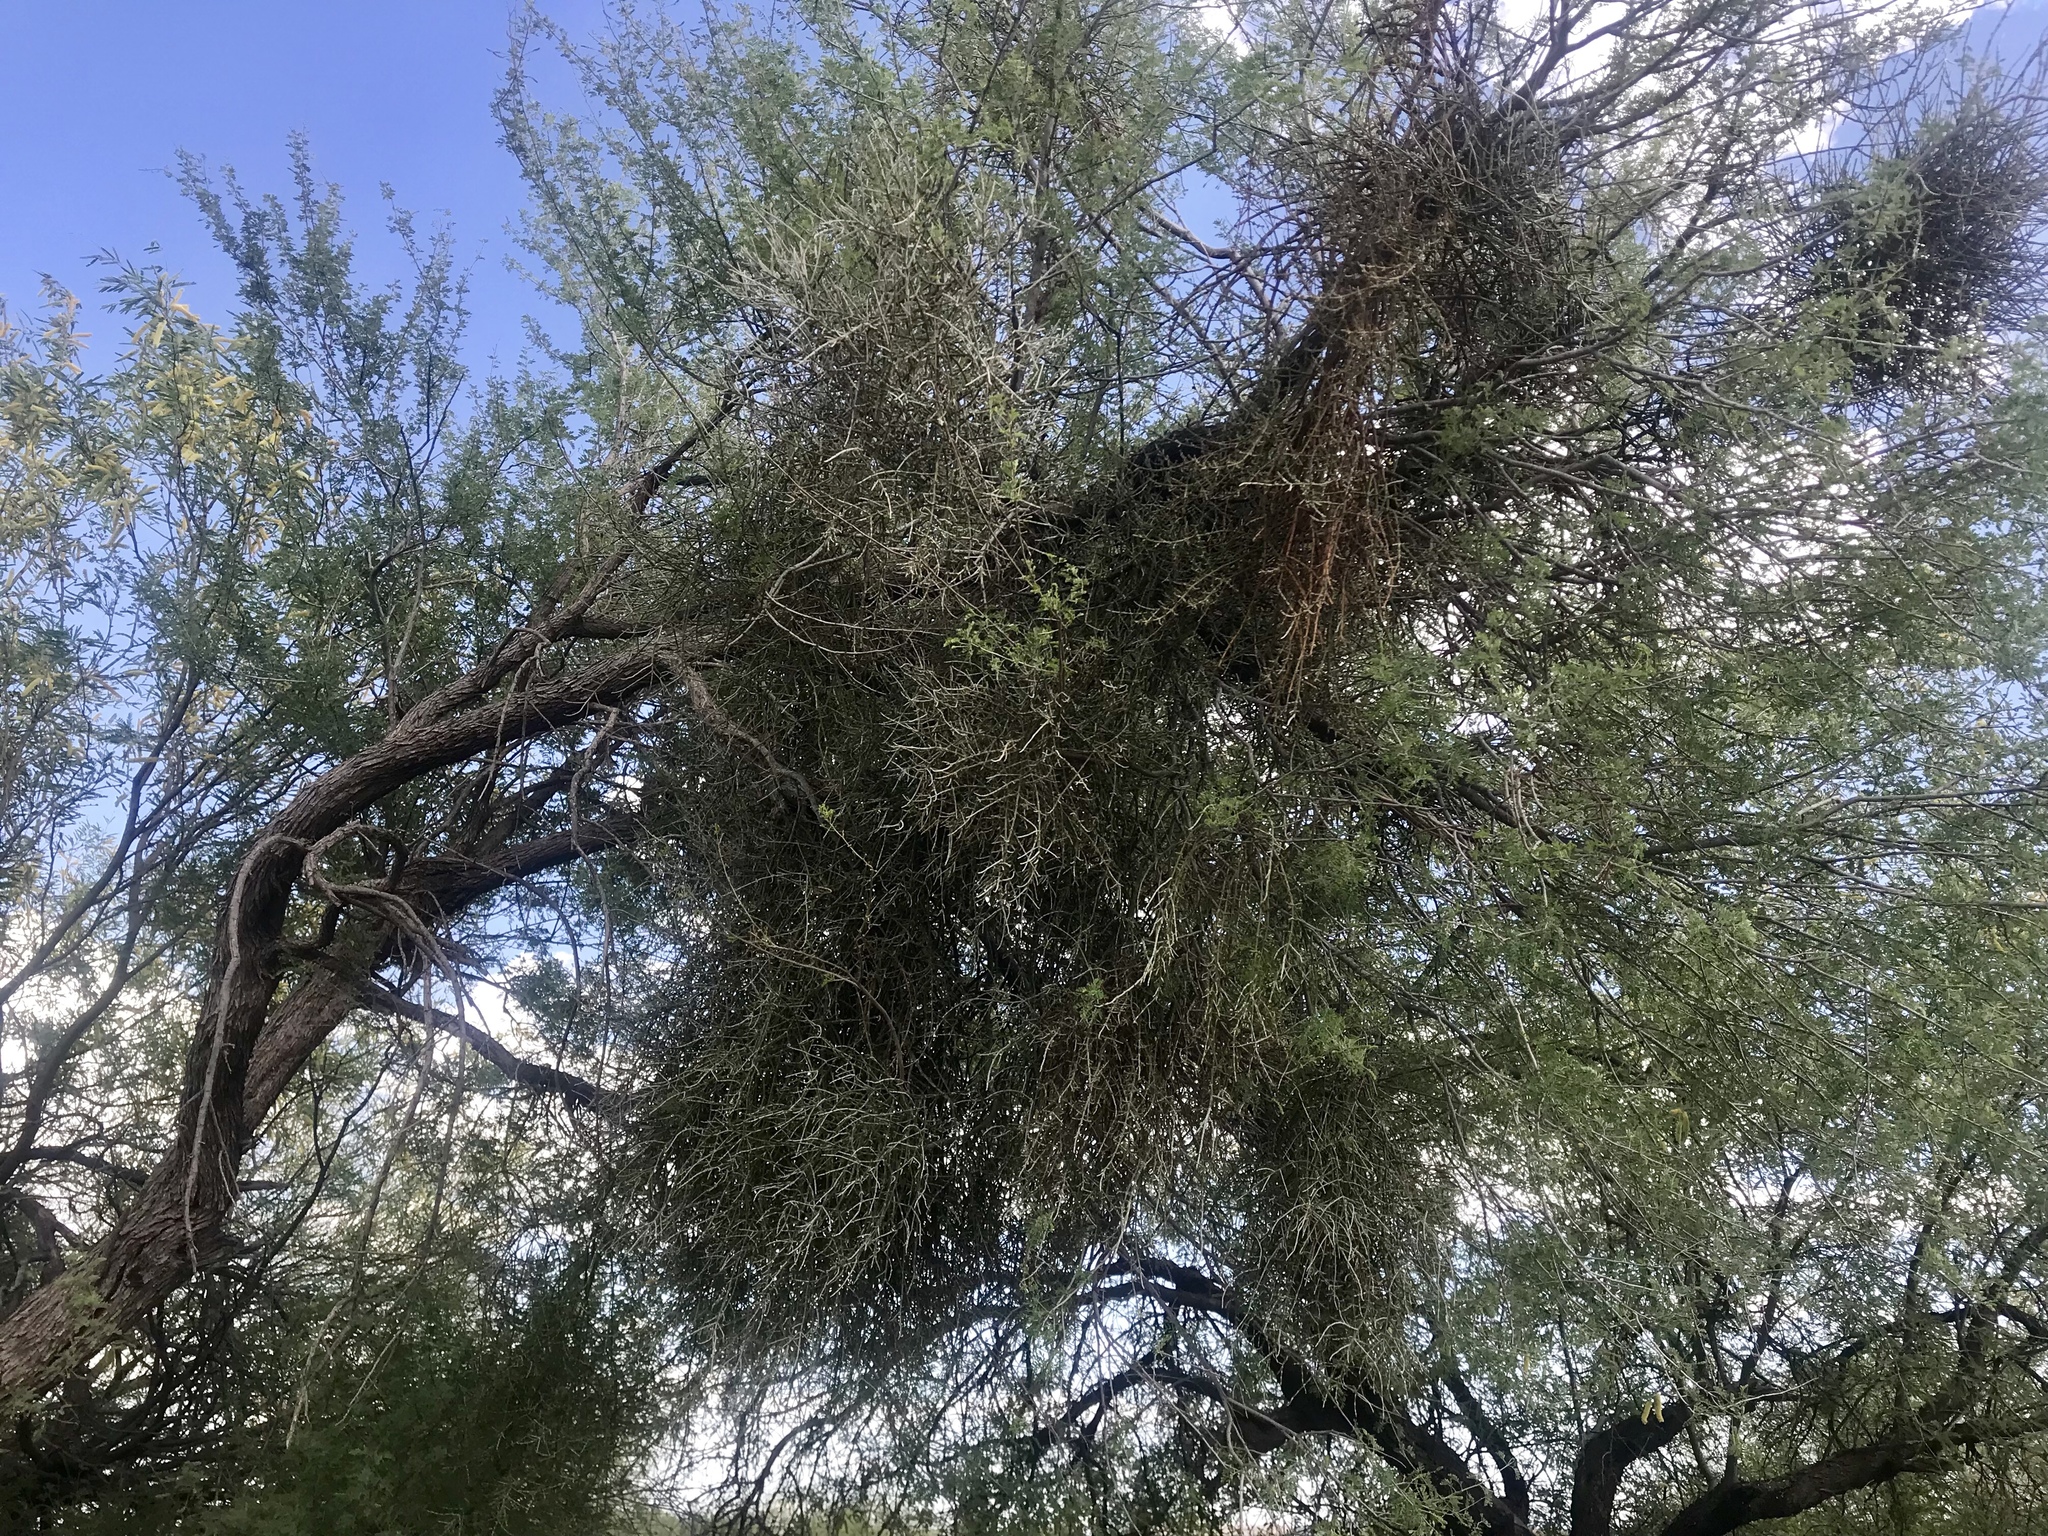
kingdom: Plantae
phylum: Tracheophyta
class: Magnoliopsida
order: Santalales
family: Viscaceae
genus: Phoradendron
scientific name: Phoradendron californicum
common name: Acacia mistletoe
